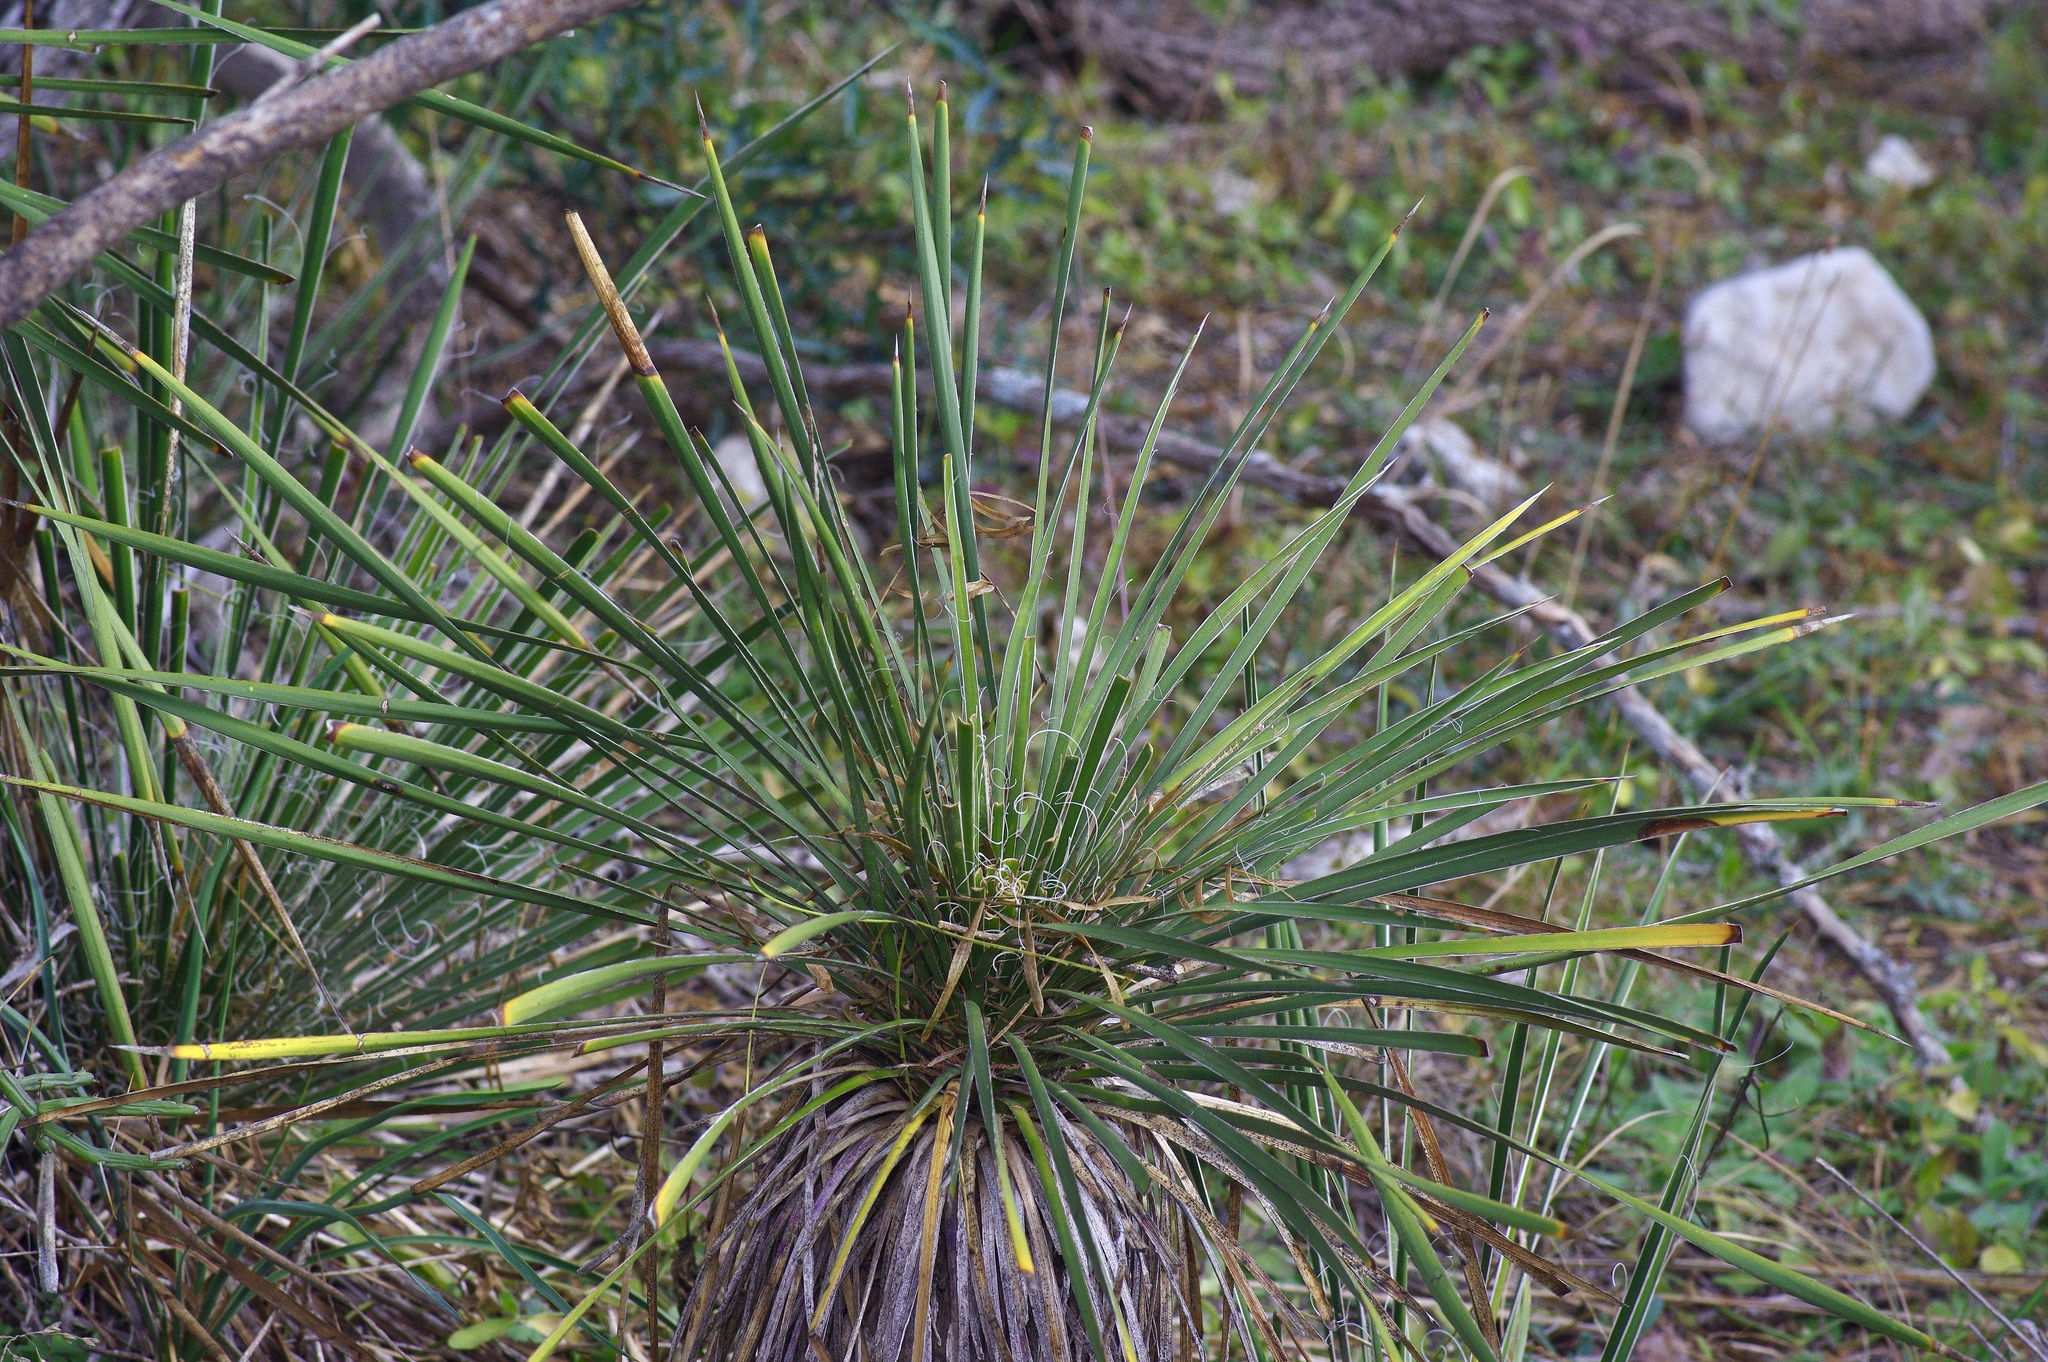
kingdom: Plantae
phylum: Tracheophyta
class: Liliopsida
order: Asparagales
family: Asparagaceae
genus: Yucca
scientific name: Yucca constricta
